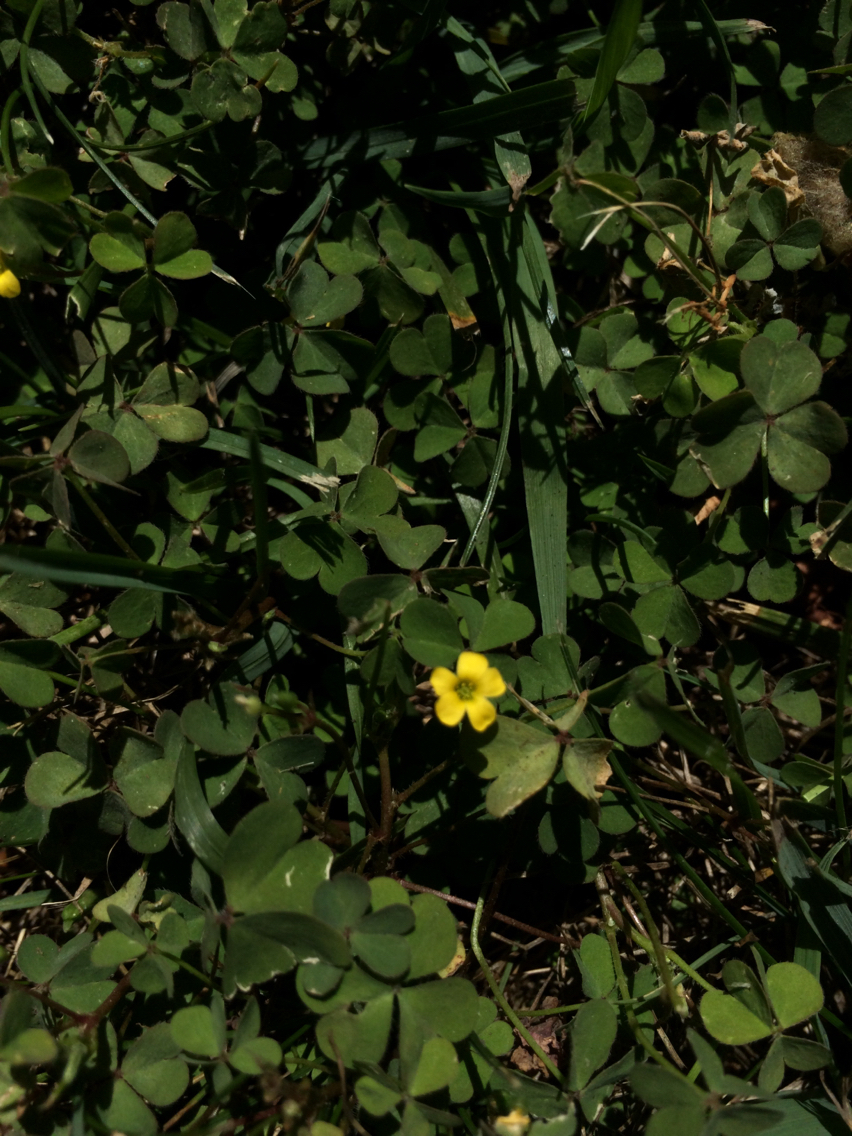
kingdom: Plantae
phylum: Tracheophyta
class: Magnoliopsida
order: Oxalidales
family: Oxalidaceae
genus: Oxalis
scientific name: Oxalis corniculata
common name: Procumbent yellow-sorrel
